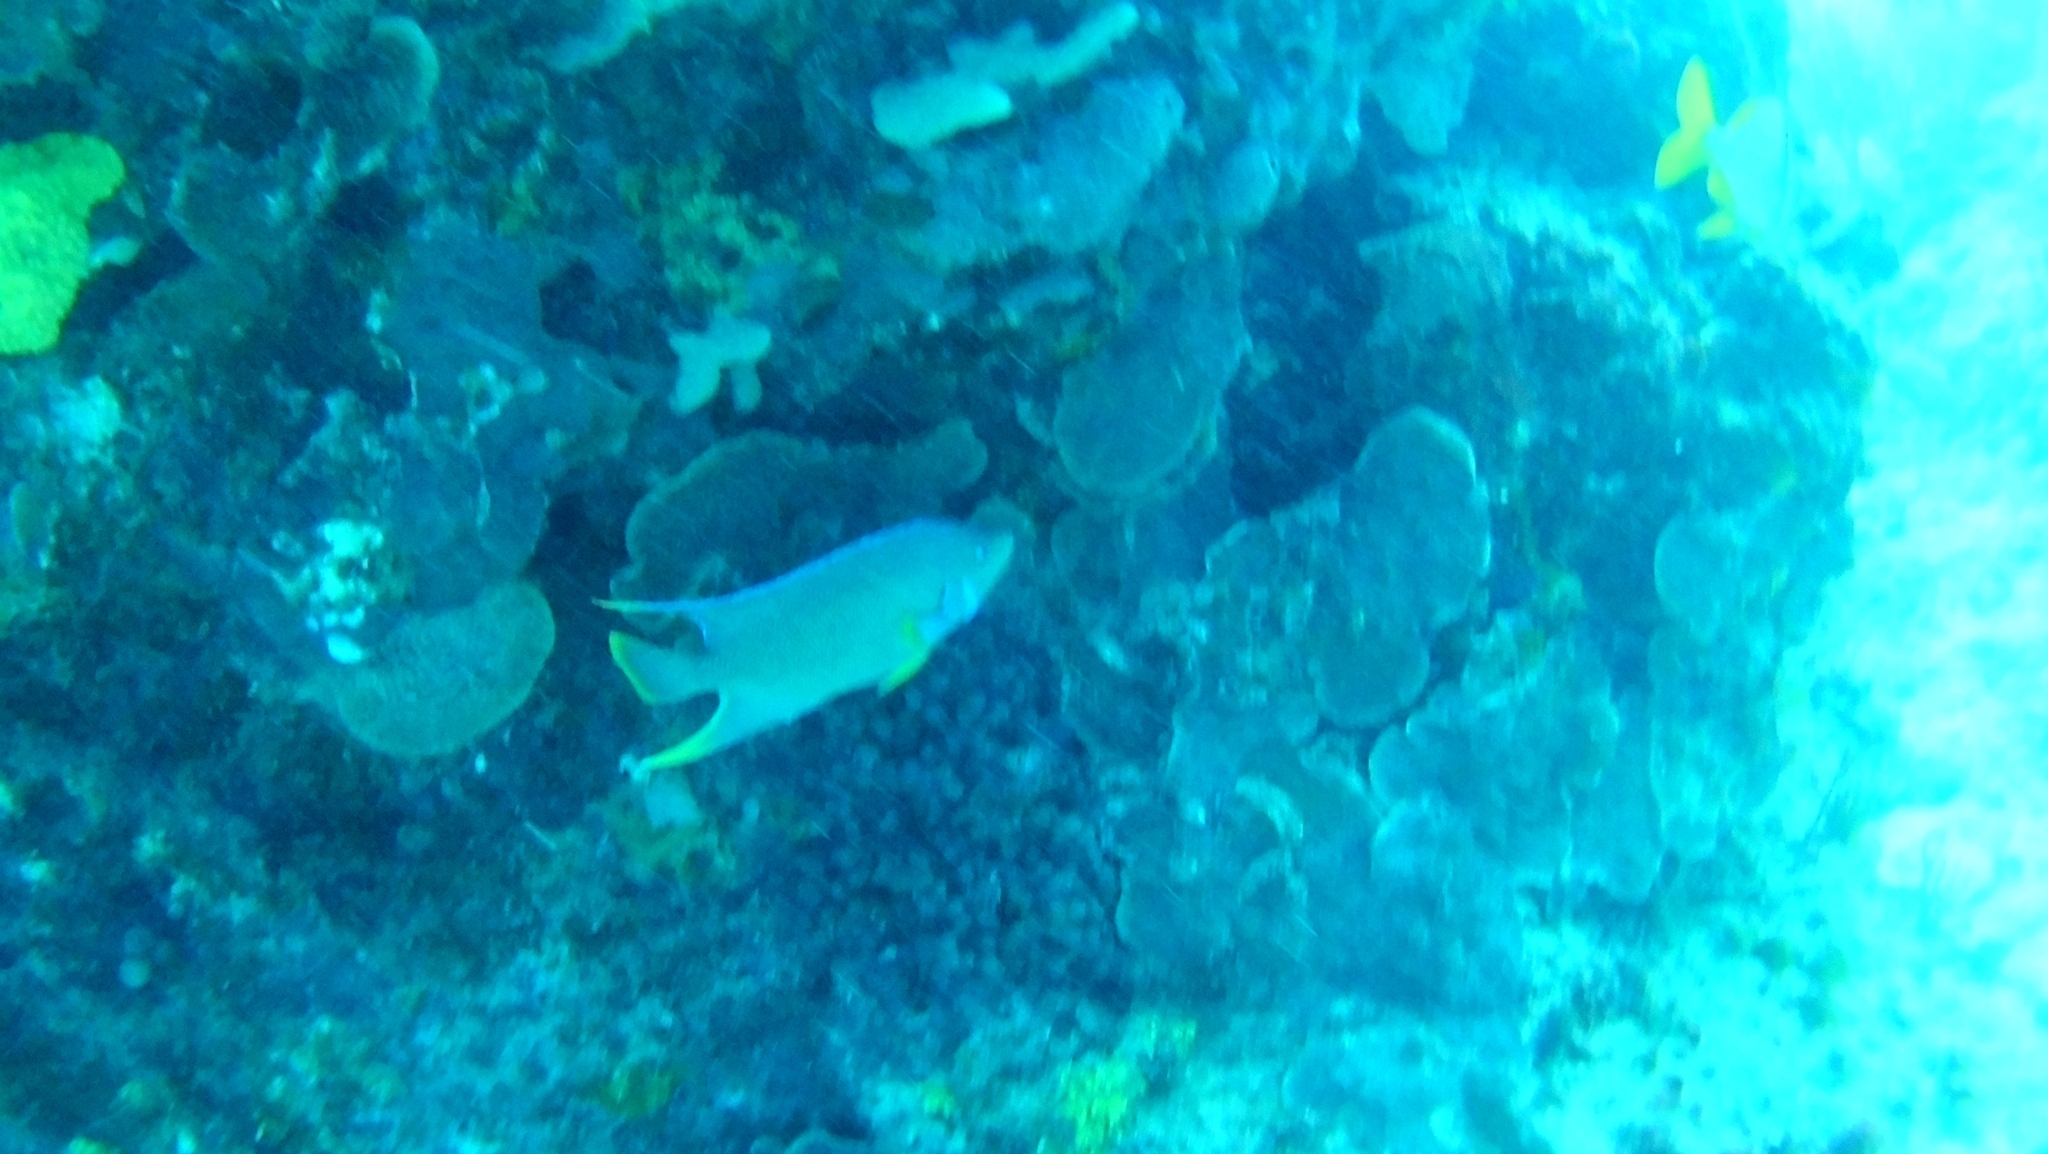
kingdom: Animalia
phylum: Chordata
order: Perciformes
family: Pomacanthidae
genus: Holacanthus
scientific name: Holacanthus bermudensis
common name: Blue angelfish
